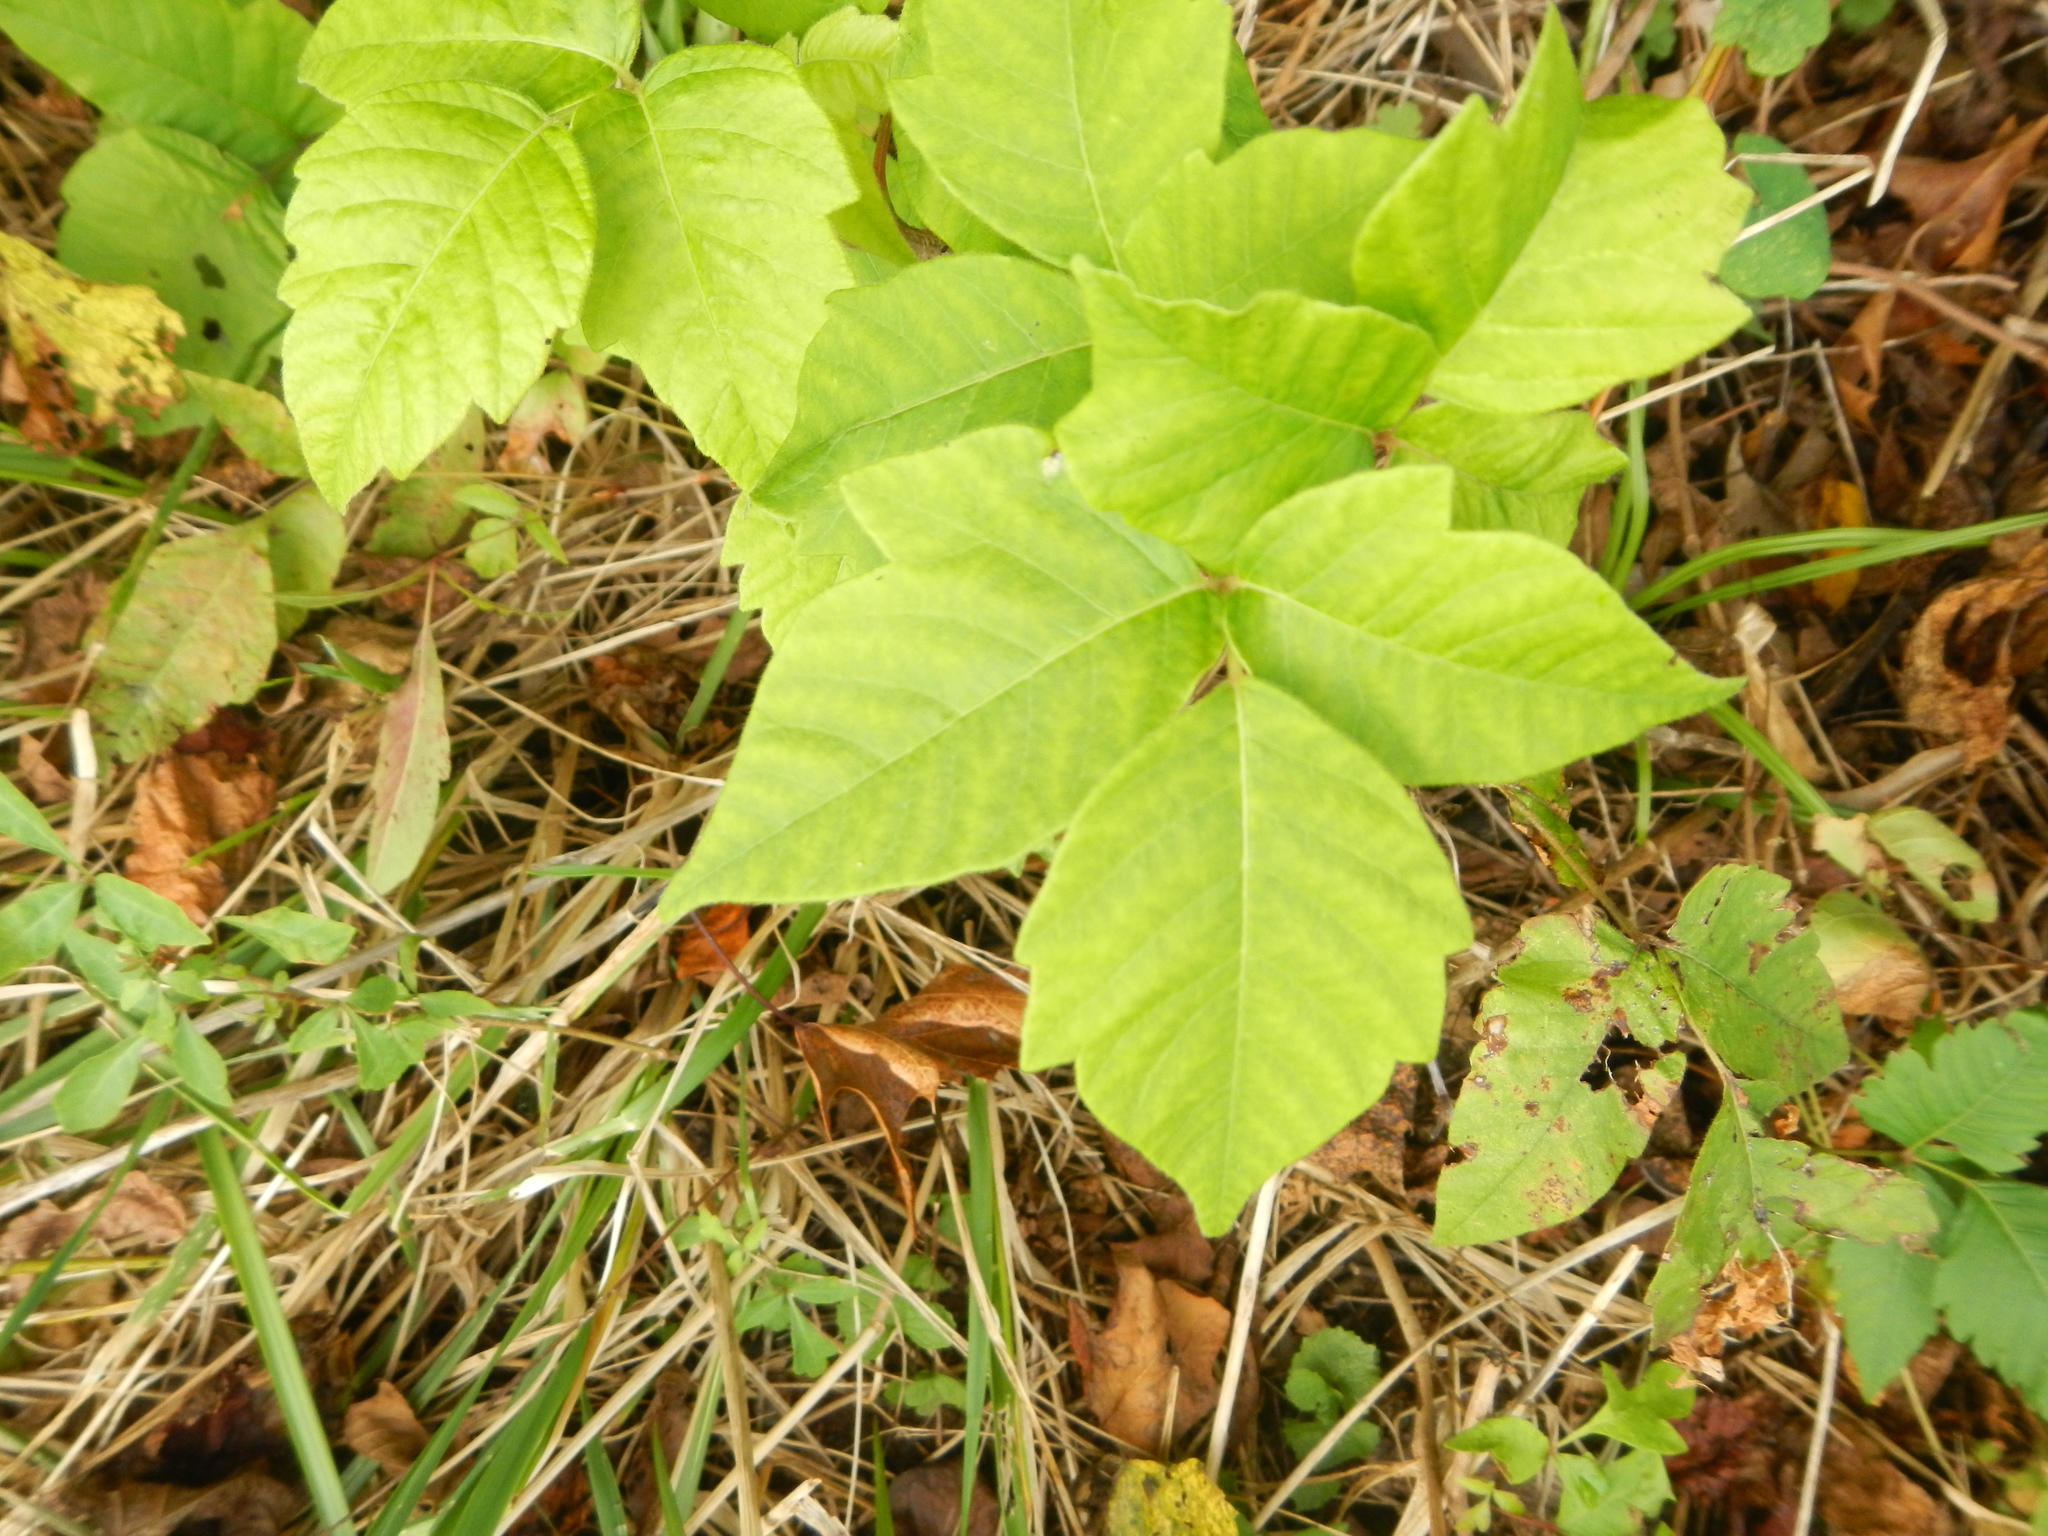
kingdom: Plantae
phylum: Tracheophyta
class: Magnoliopsida
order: Sapindales
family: Anacardiaceae
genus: Toxicodendron
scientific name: Toxicodendron radicans
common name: Poison ivy
